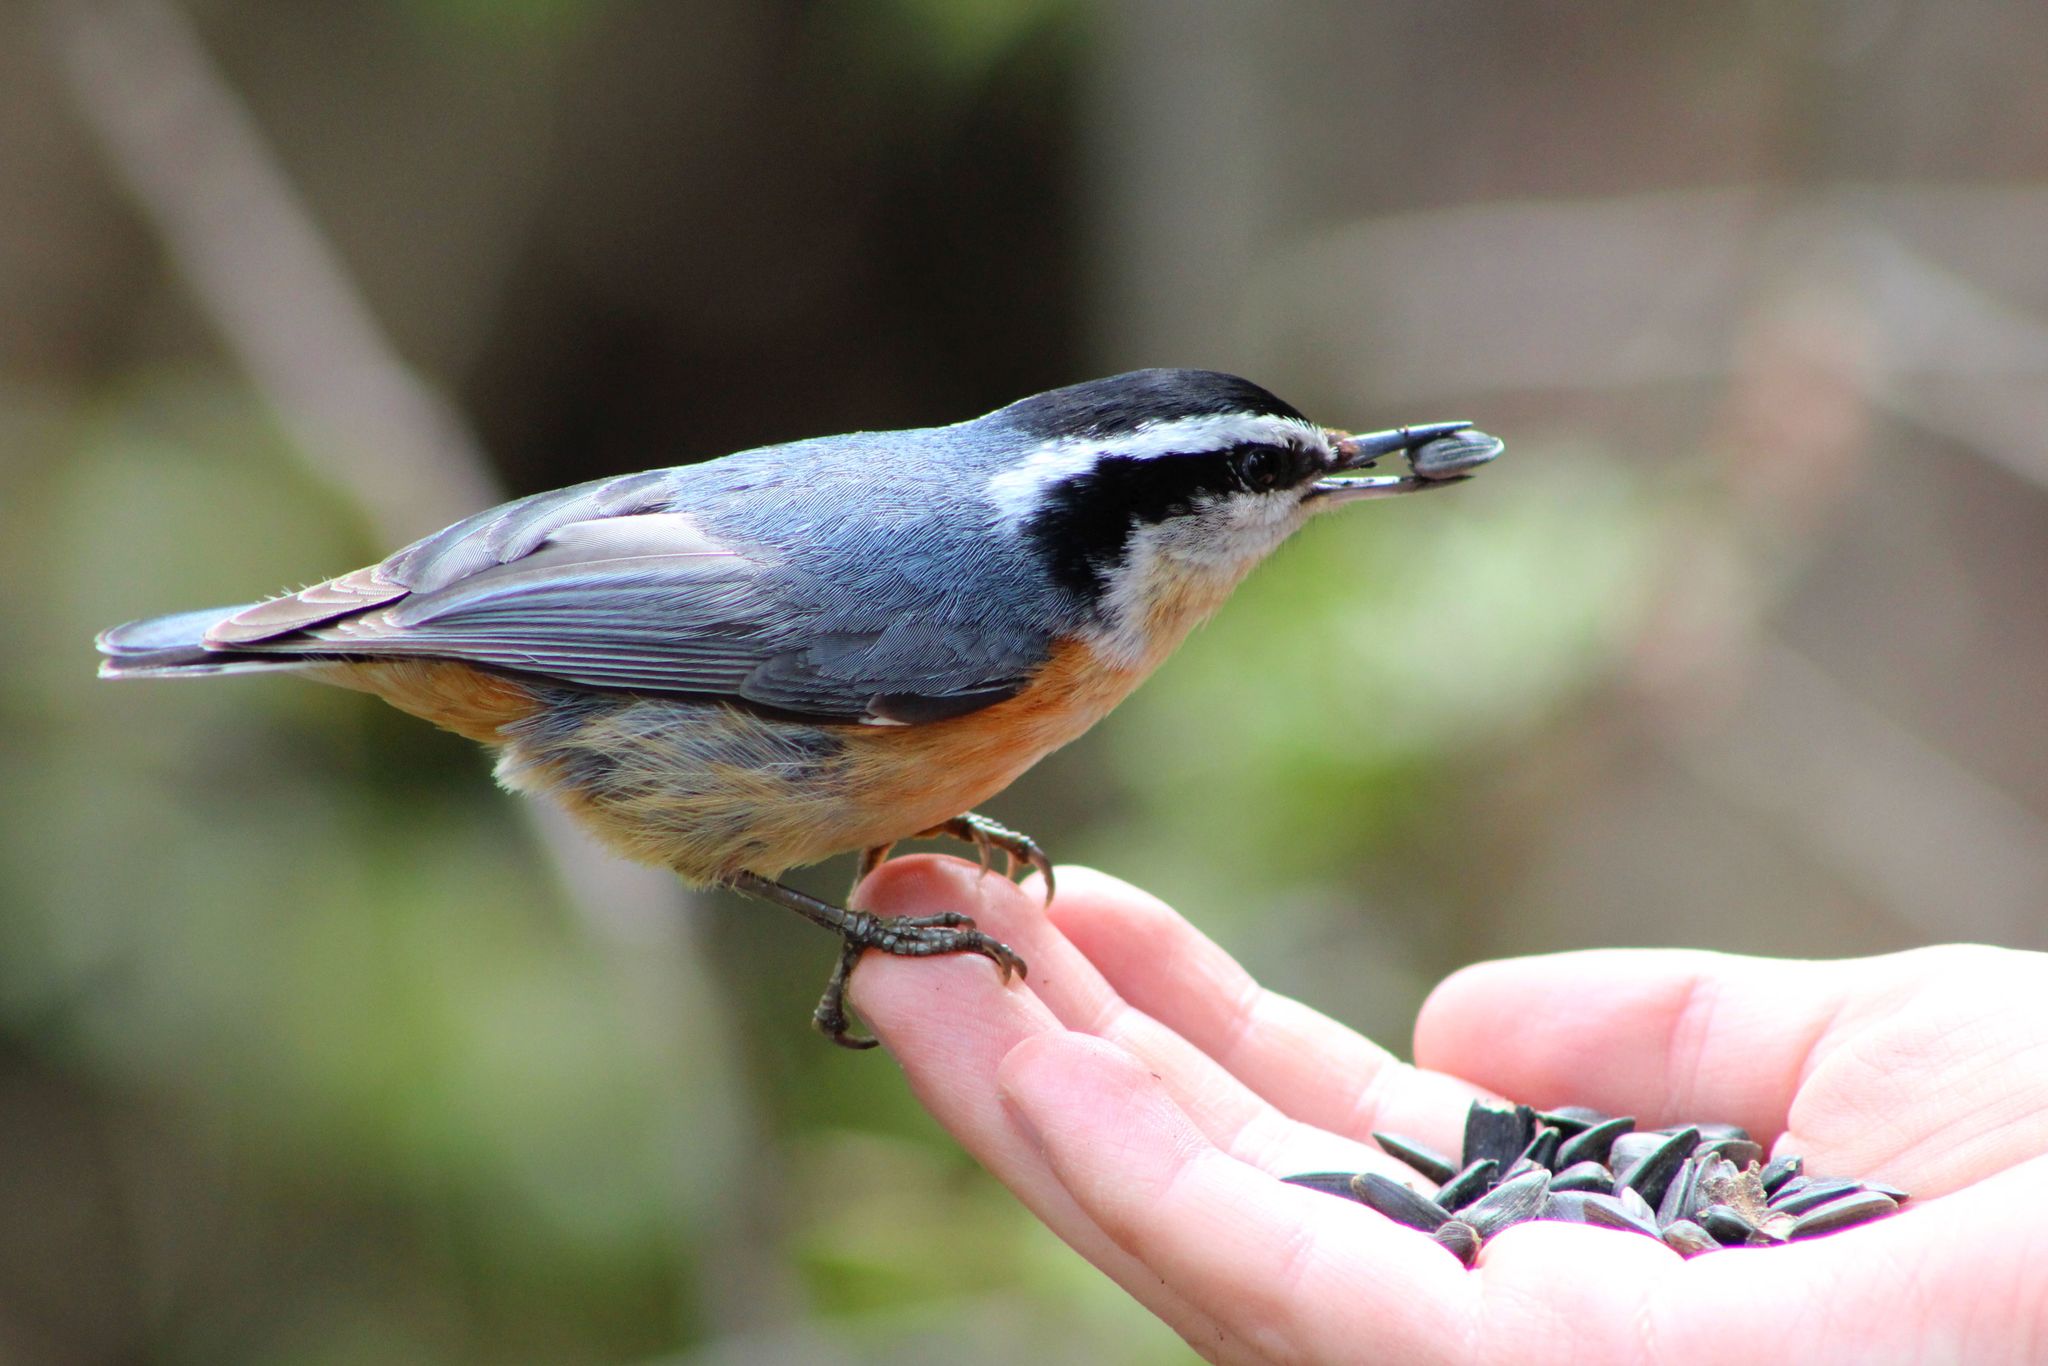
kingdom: Animalia
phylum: Chordata
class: Aves
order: Passeriformes
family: Sittidae
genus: Sitta
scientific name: Sitta canadensis
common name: Red-breasted nuthatch
